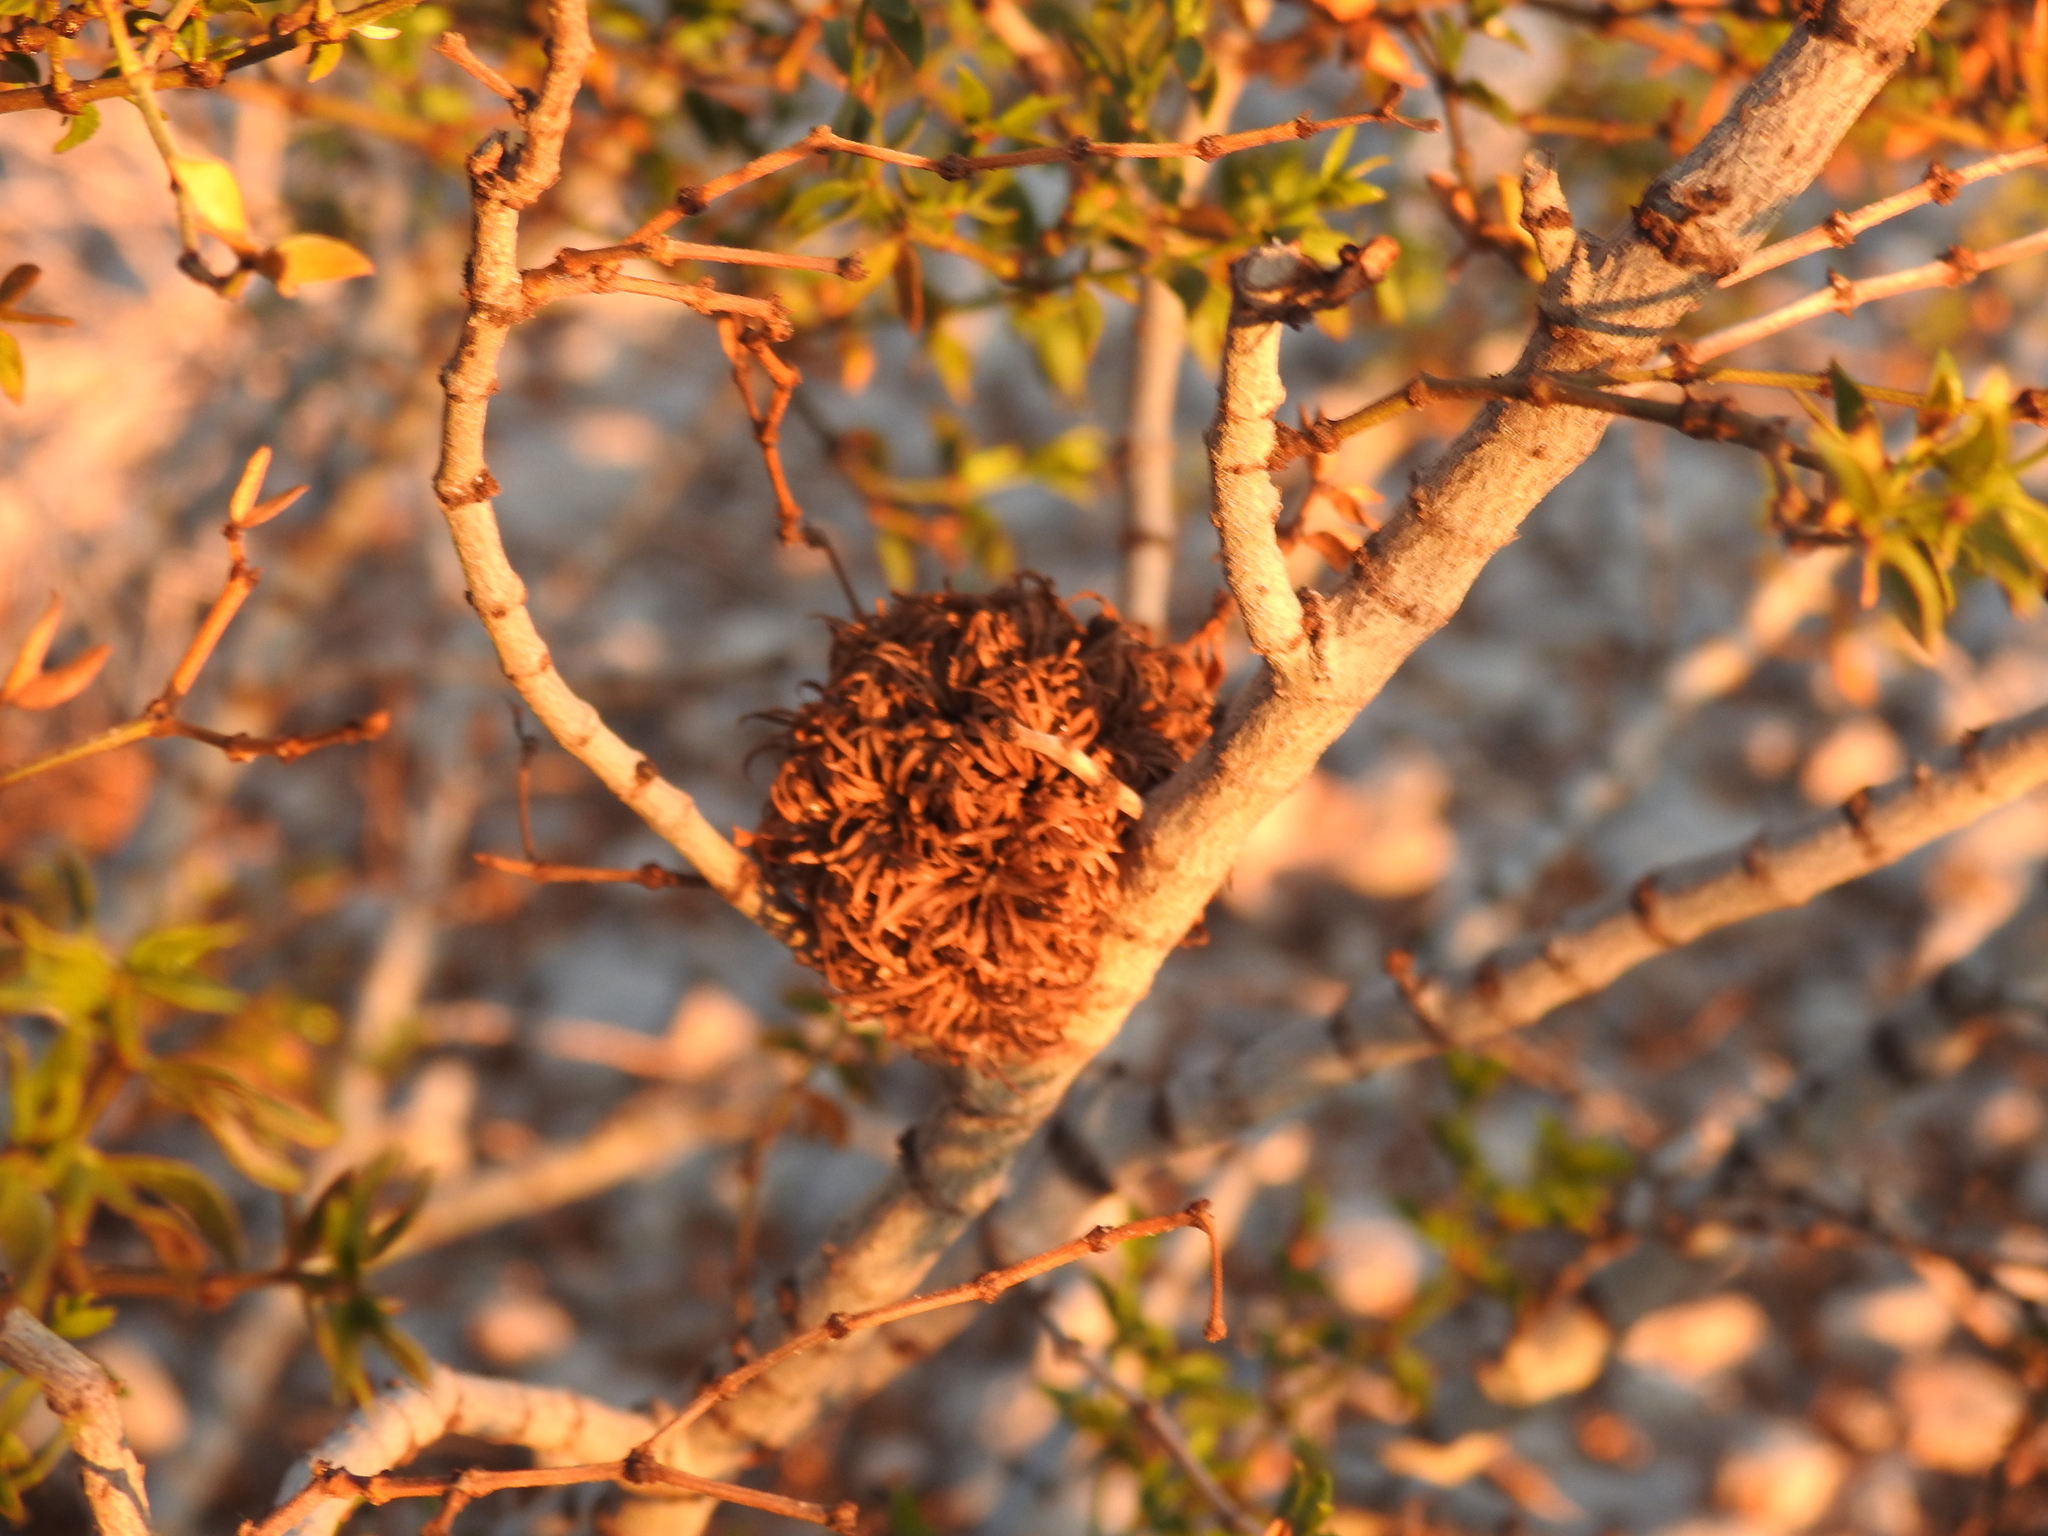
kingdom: Animalia
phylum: Arthropoda
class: Insecta
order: Diptera
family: Cecidomyiidae
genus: Asphondylia
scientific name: Asphondylia auripila
